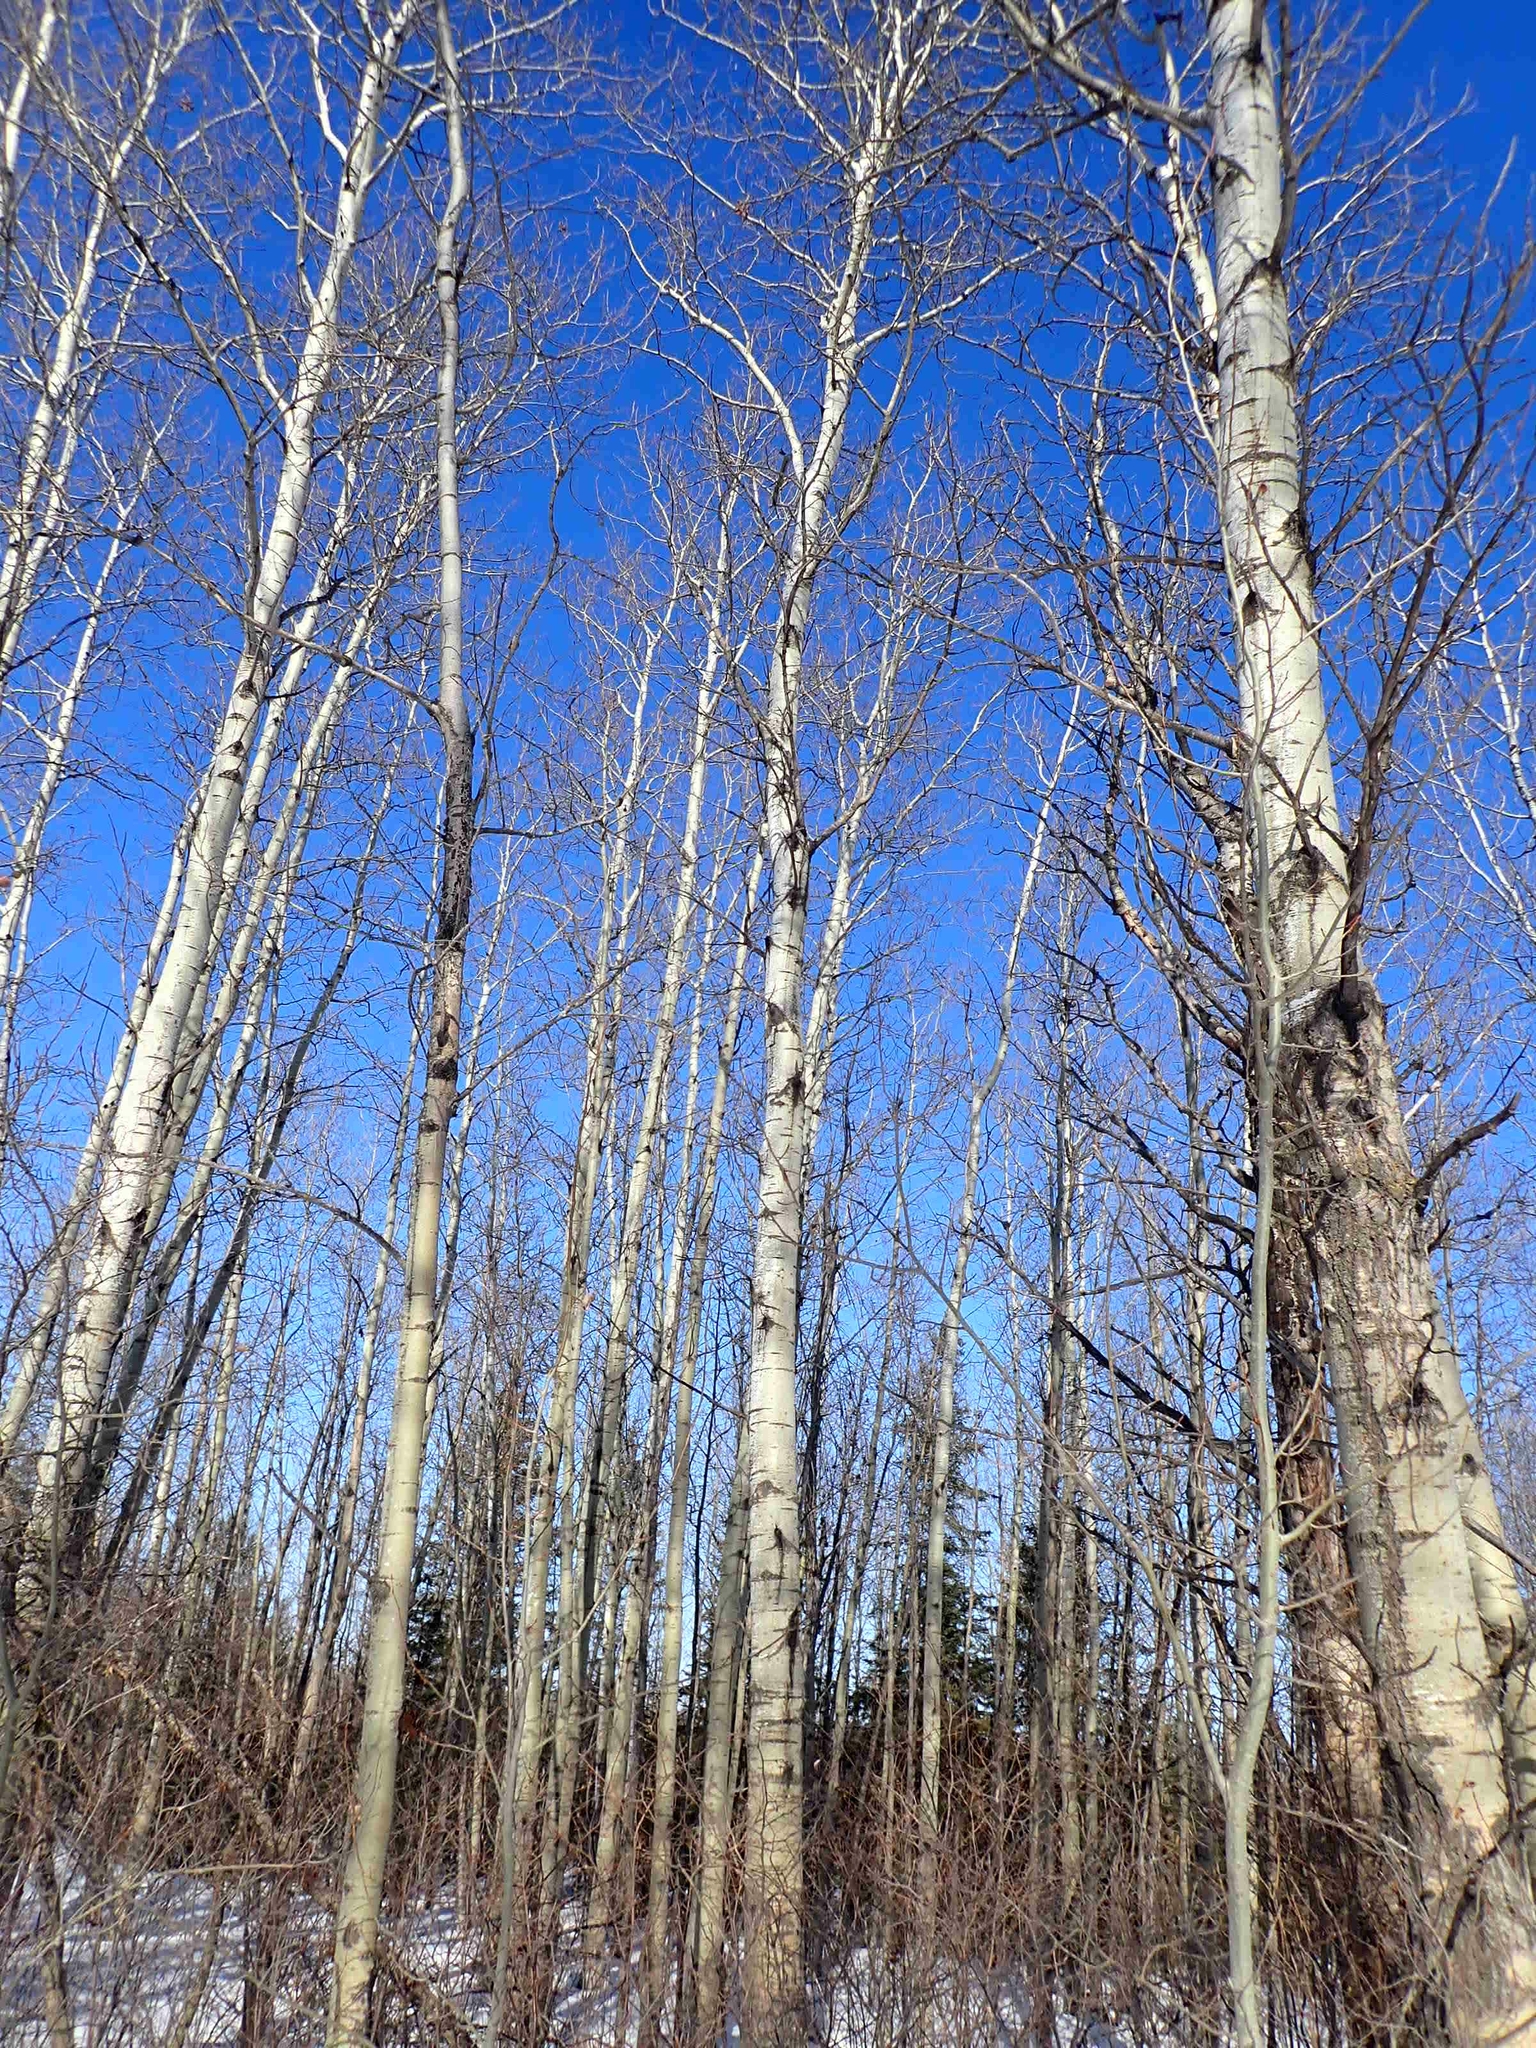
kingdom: Plantae
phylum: Tracheophyta
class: Magnoliopsida
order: Malpighiales
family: Salicaceae
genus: Populus
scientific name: Populus balsamifera
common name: Balsam poplar
